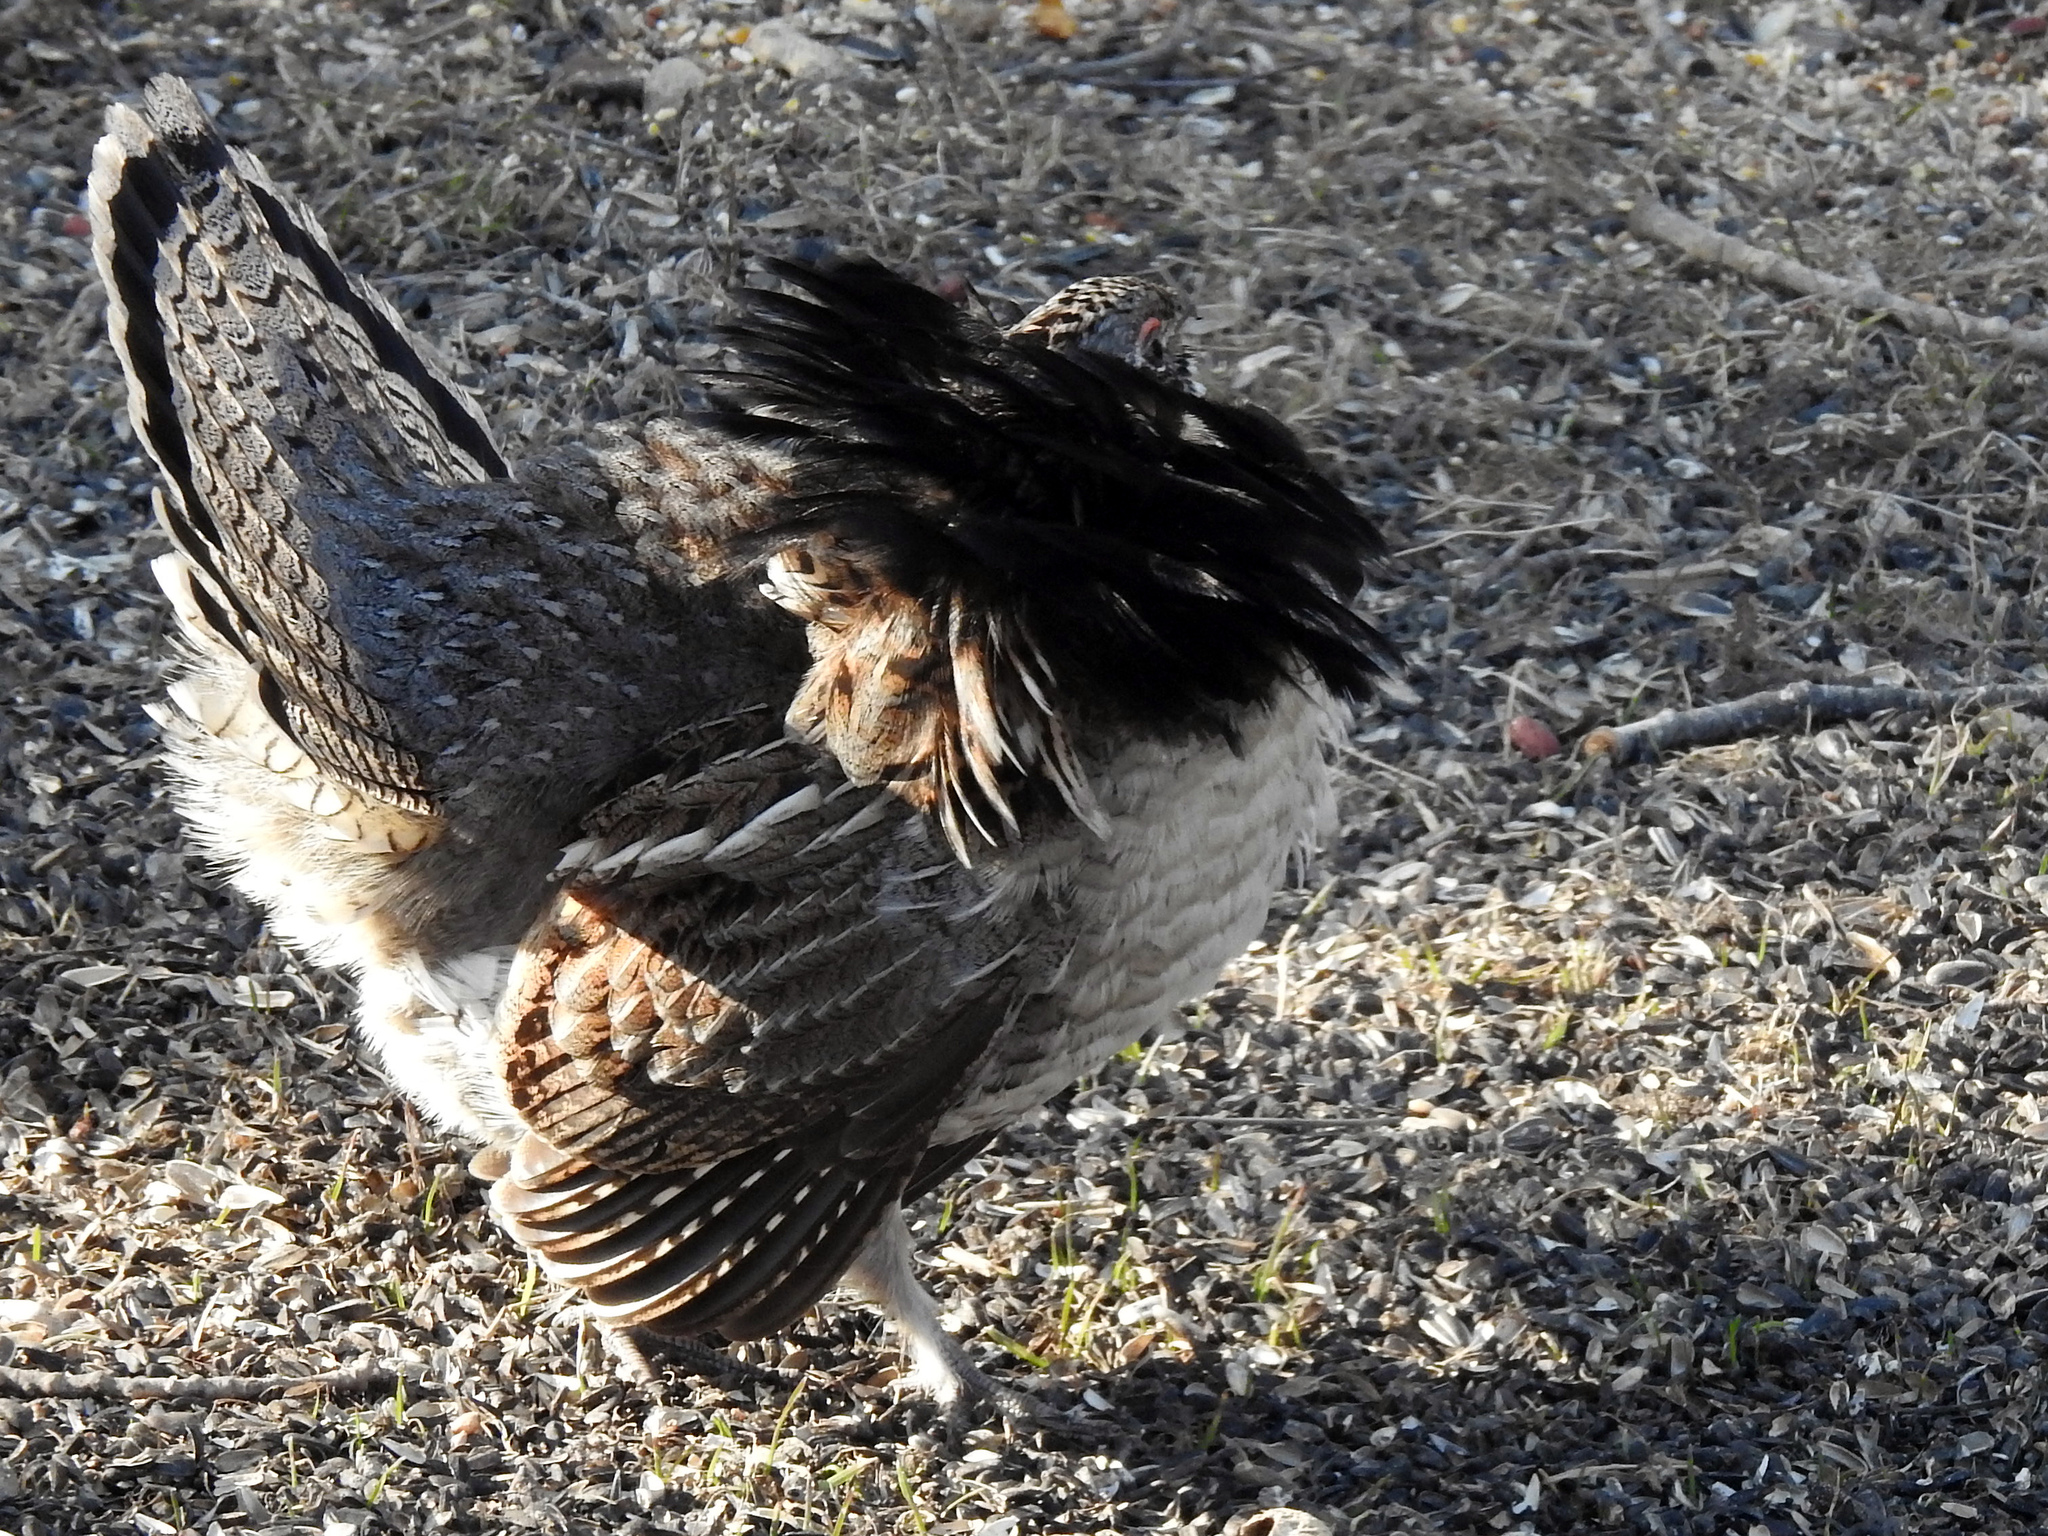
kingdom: Animalia
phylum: Chordata
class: Aves
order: Galliformes
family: Phasianidae
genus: Bonasa
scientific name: Bonasa umbellus
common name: Ruffed grouse
